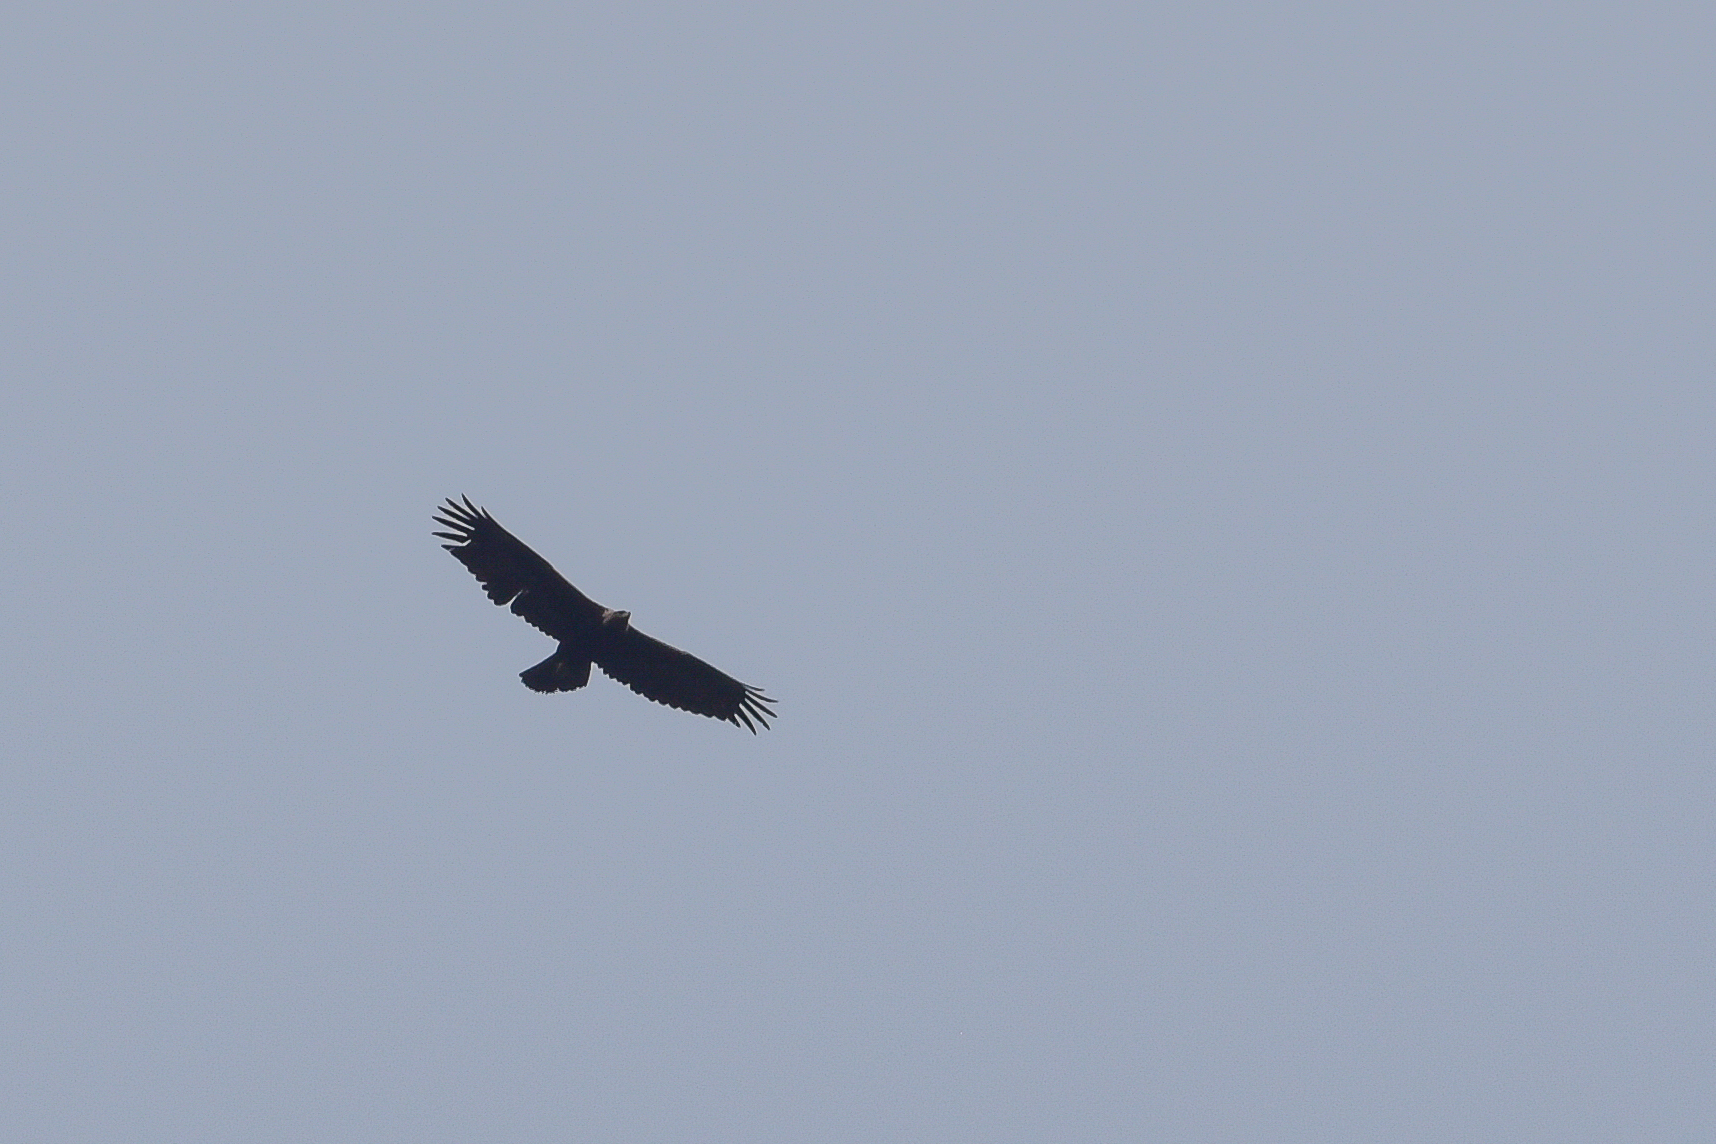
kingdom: Animalia
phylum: Chordata
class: Aves
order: Accipitriformes
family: Accipitridae
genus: Aquila
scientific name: Aquila chrysaetos
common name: Golden eagle
